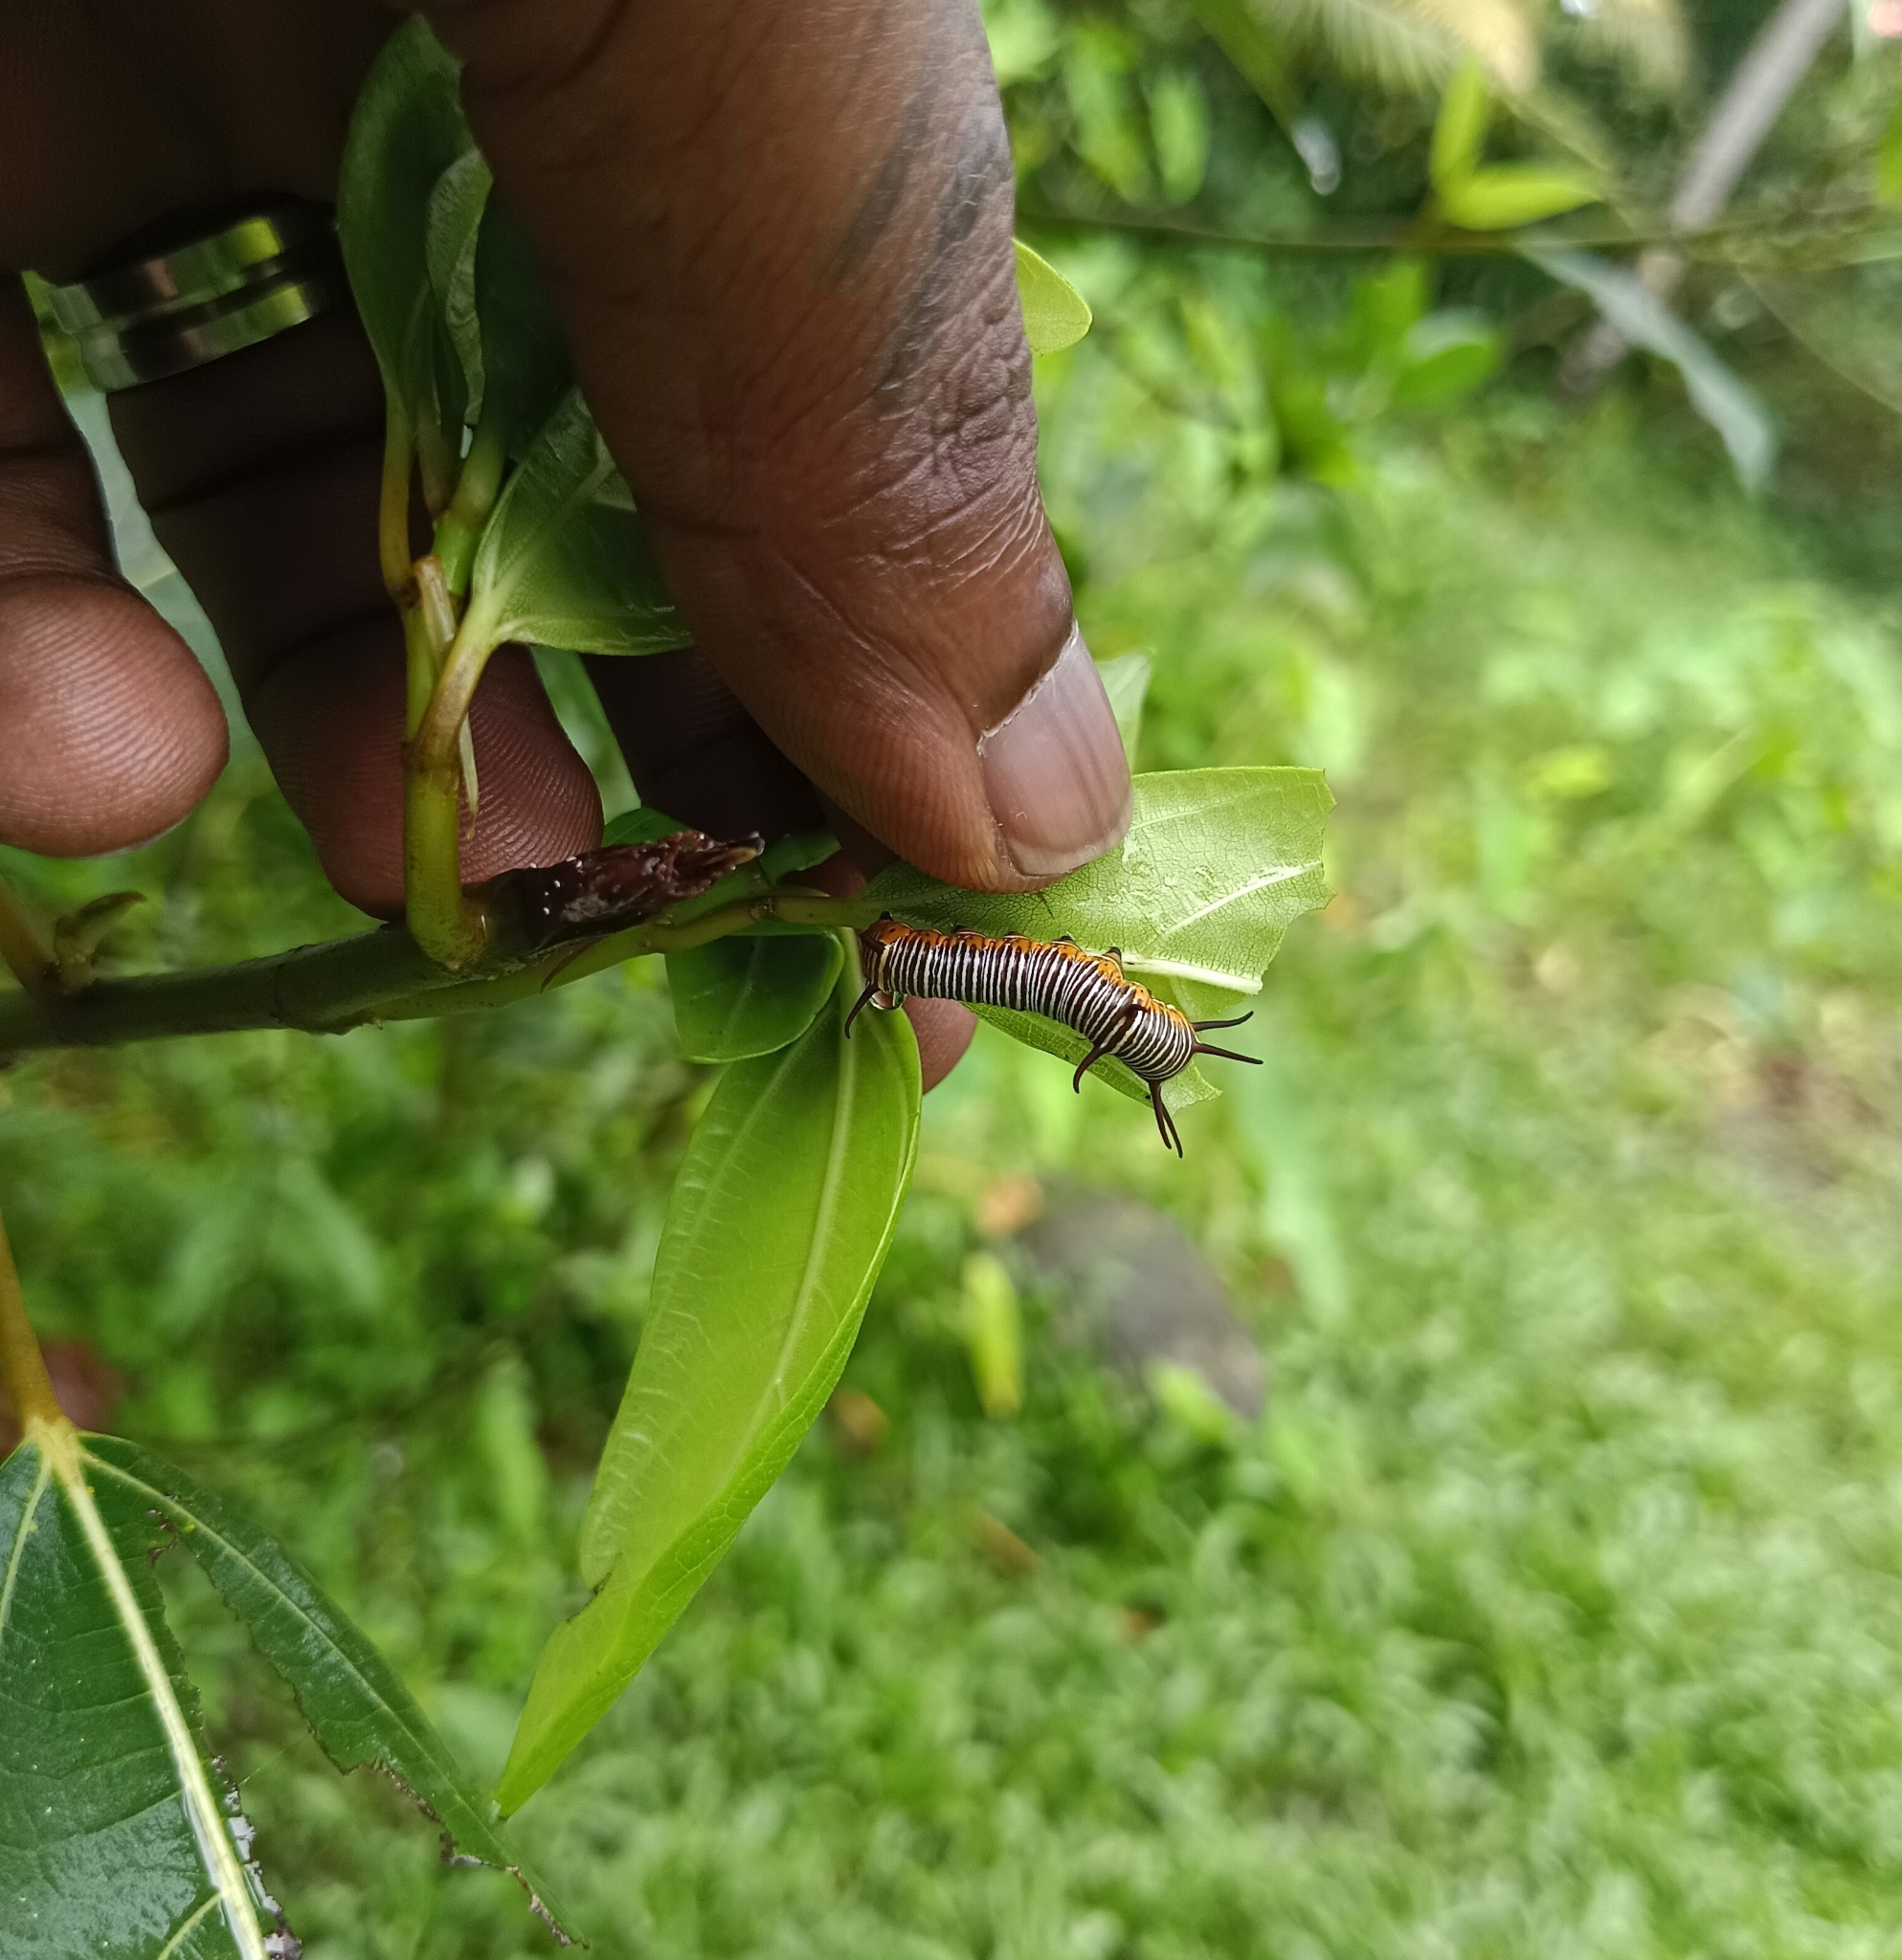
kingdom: Animalia
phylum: Arthropoda
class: Insecta
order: Lepidoptera
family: Nymphalidae
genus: Euploea
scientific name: Euploea core
